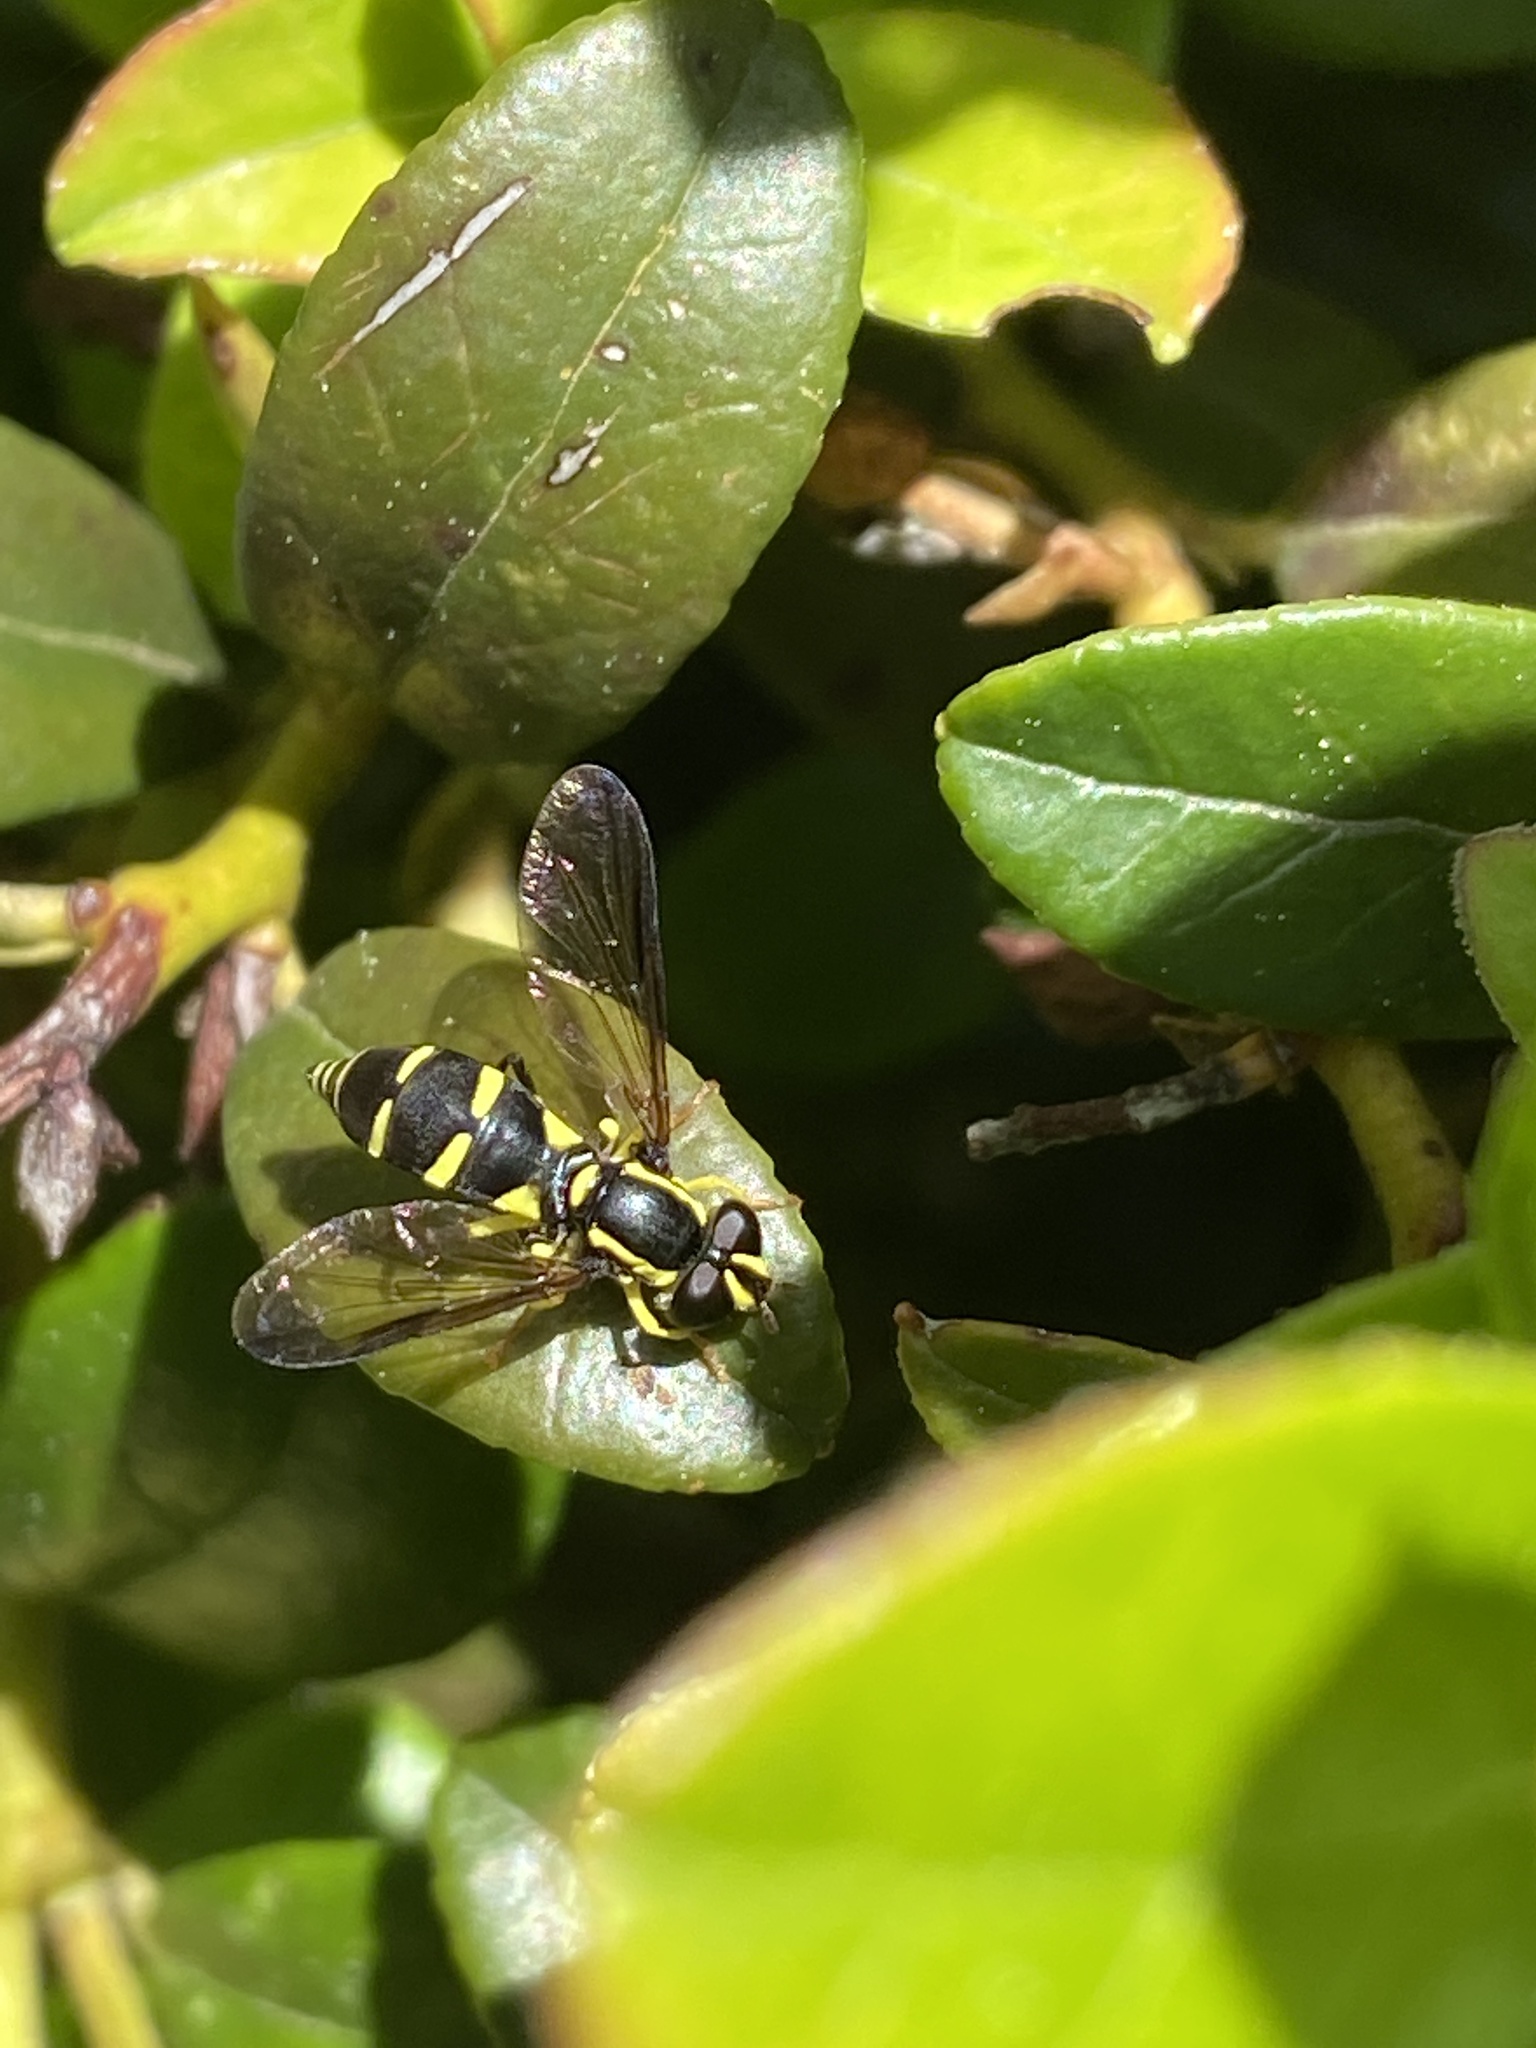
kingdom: Animalia
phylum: Arthropoda
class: Insecta
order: Diptera
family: Syrphidae
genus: Philhelius
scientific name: Philhelius pedissequum
